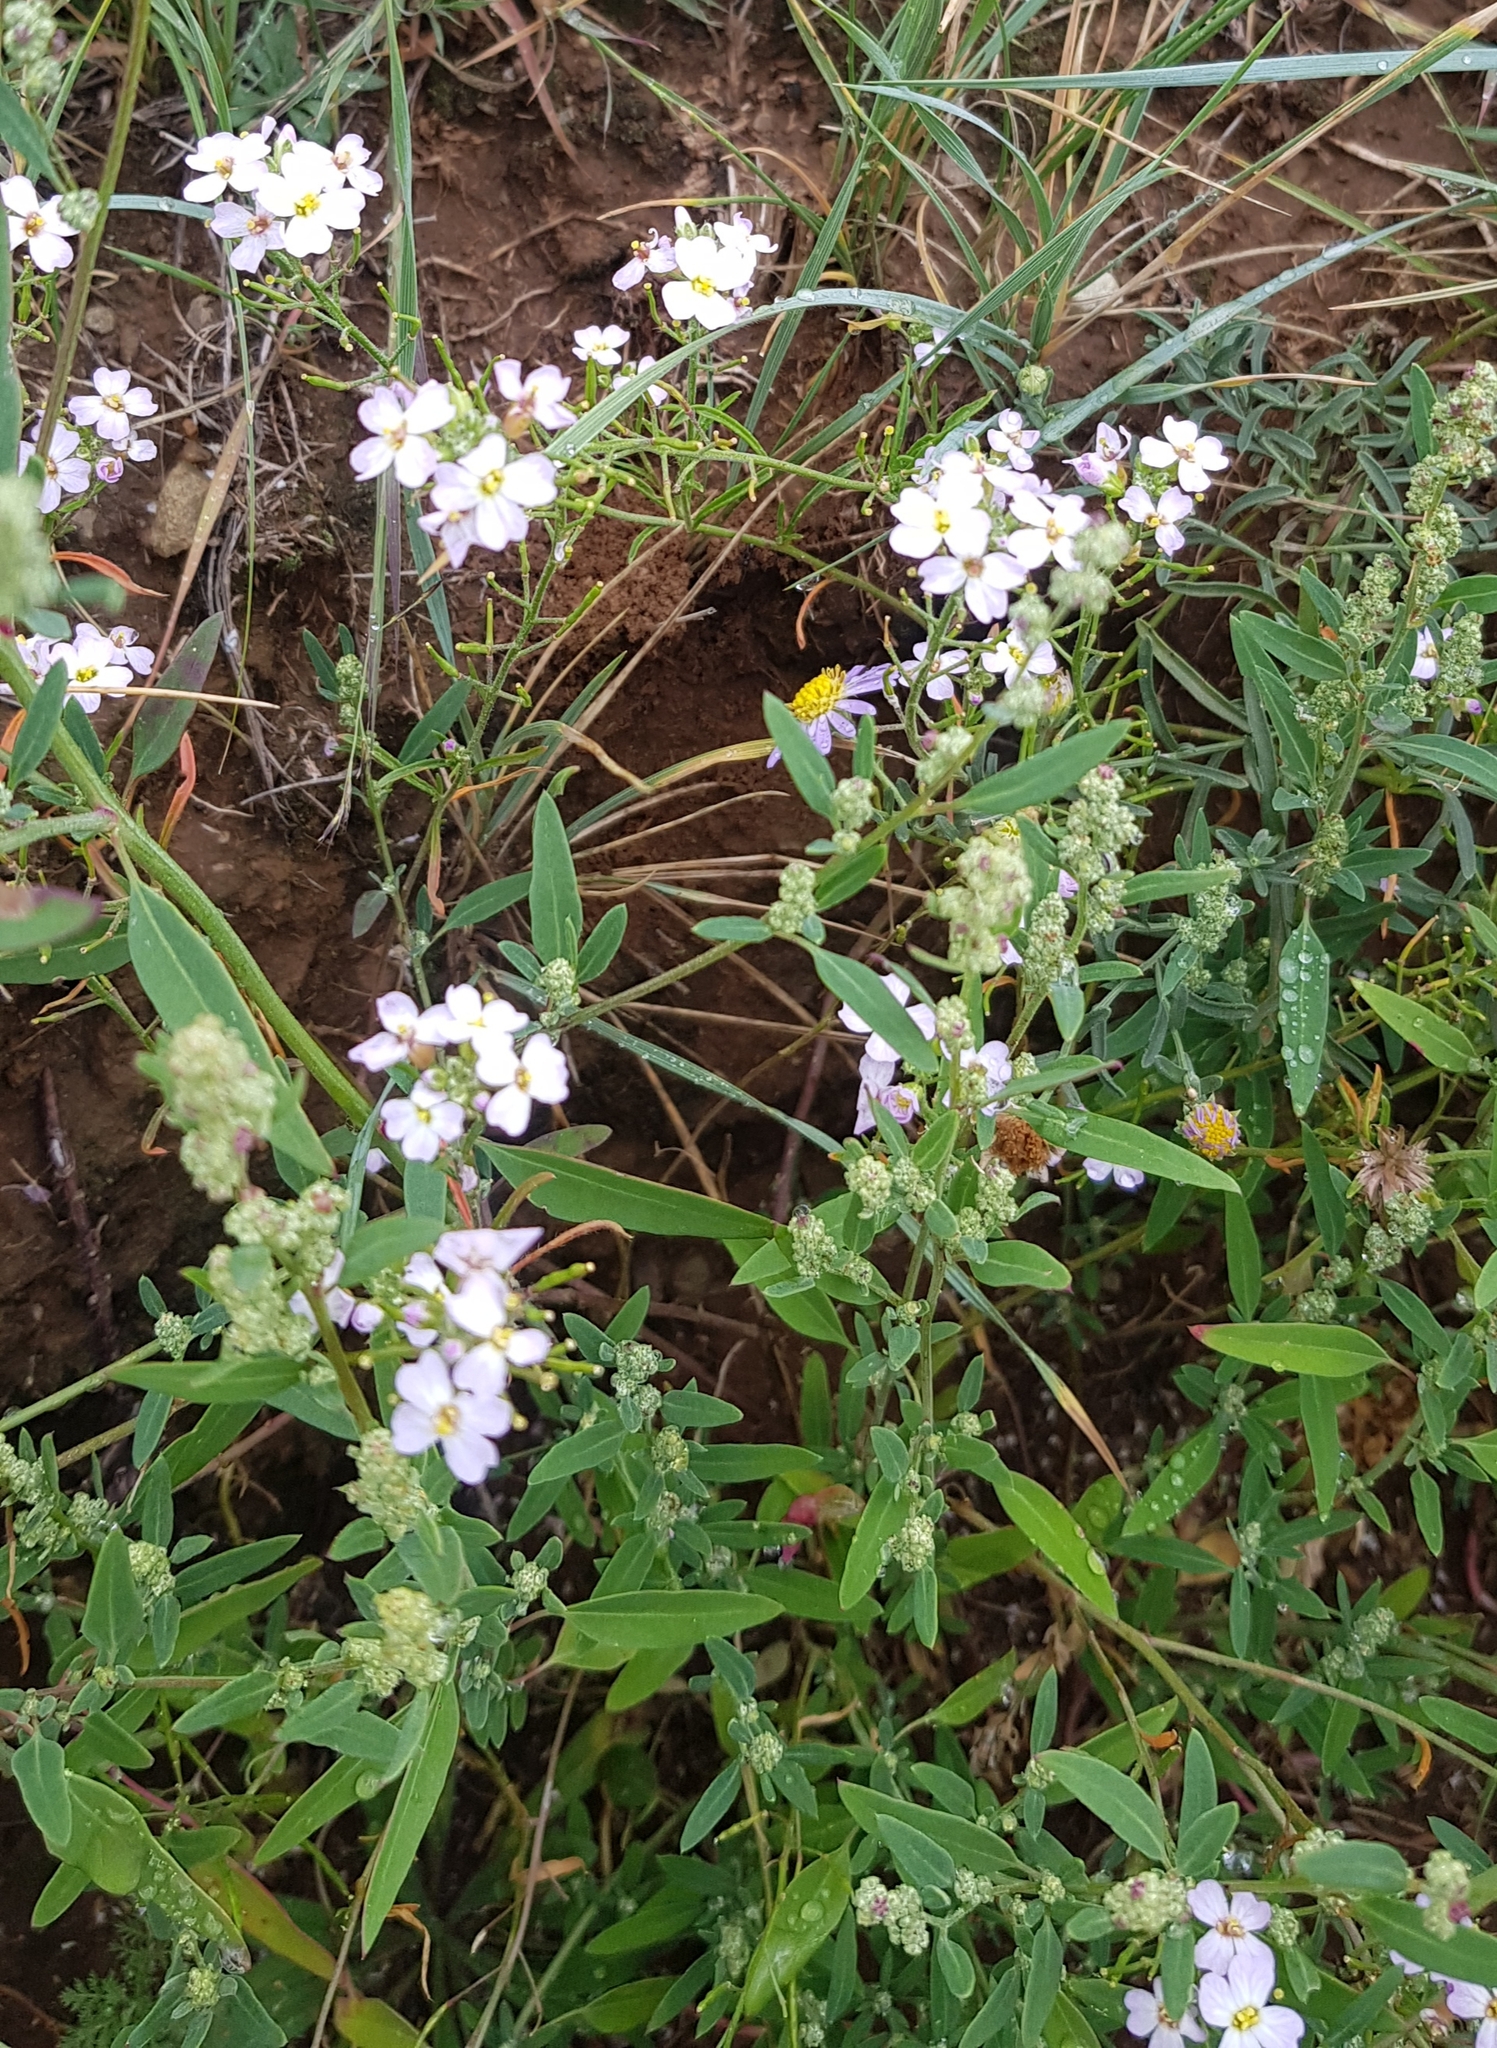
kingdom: Plantae
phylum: Tracheophyta
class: Magnoliopsida
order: Brassicales
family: Brassicaceae
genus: Dontostemon
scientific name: Dontostemon integrifolius
